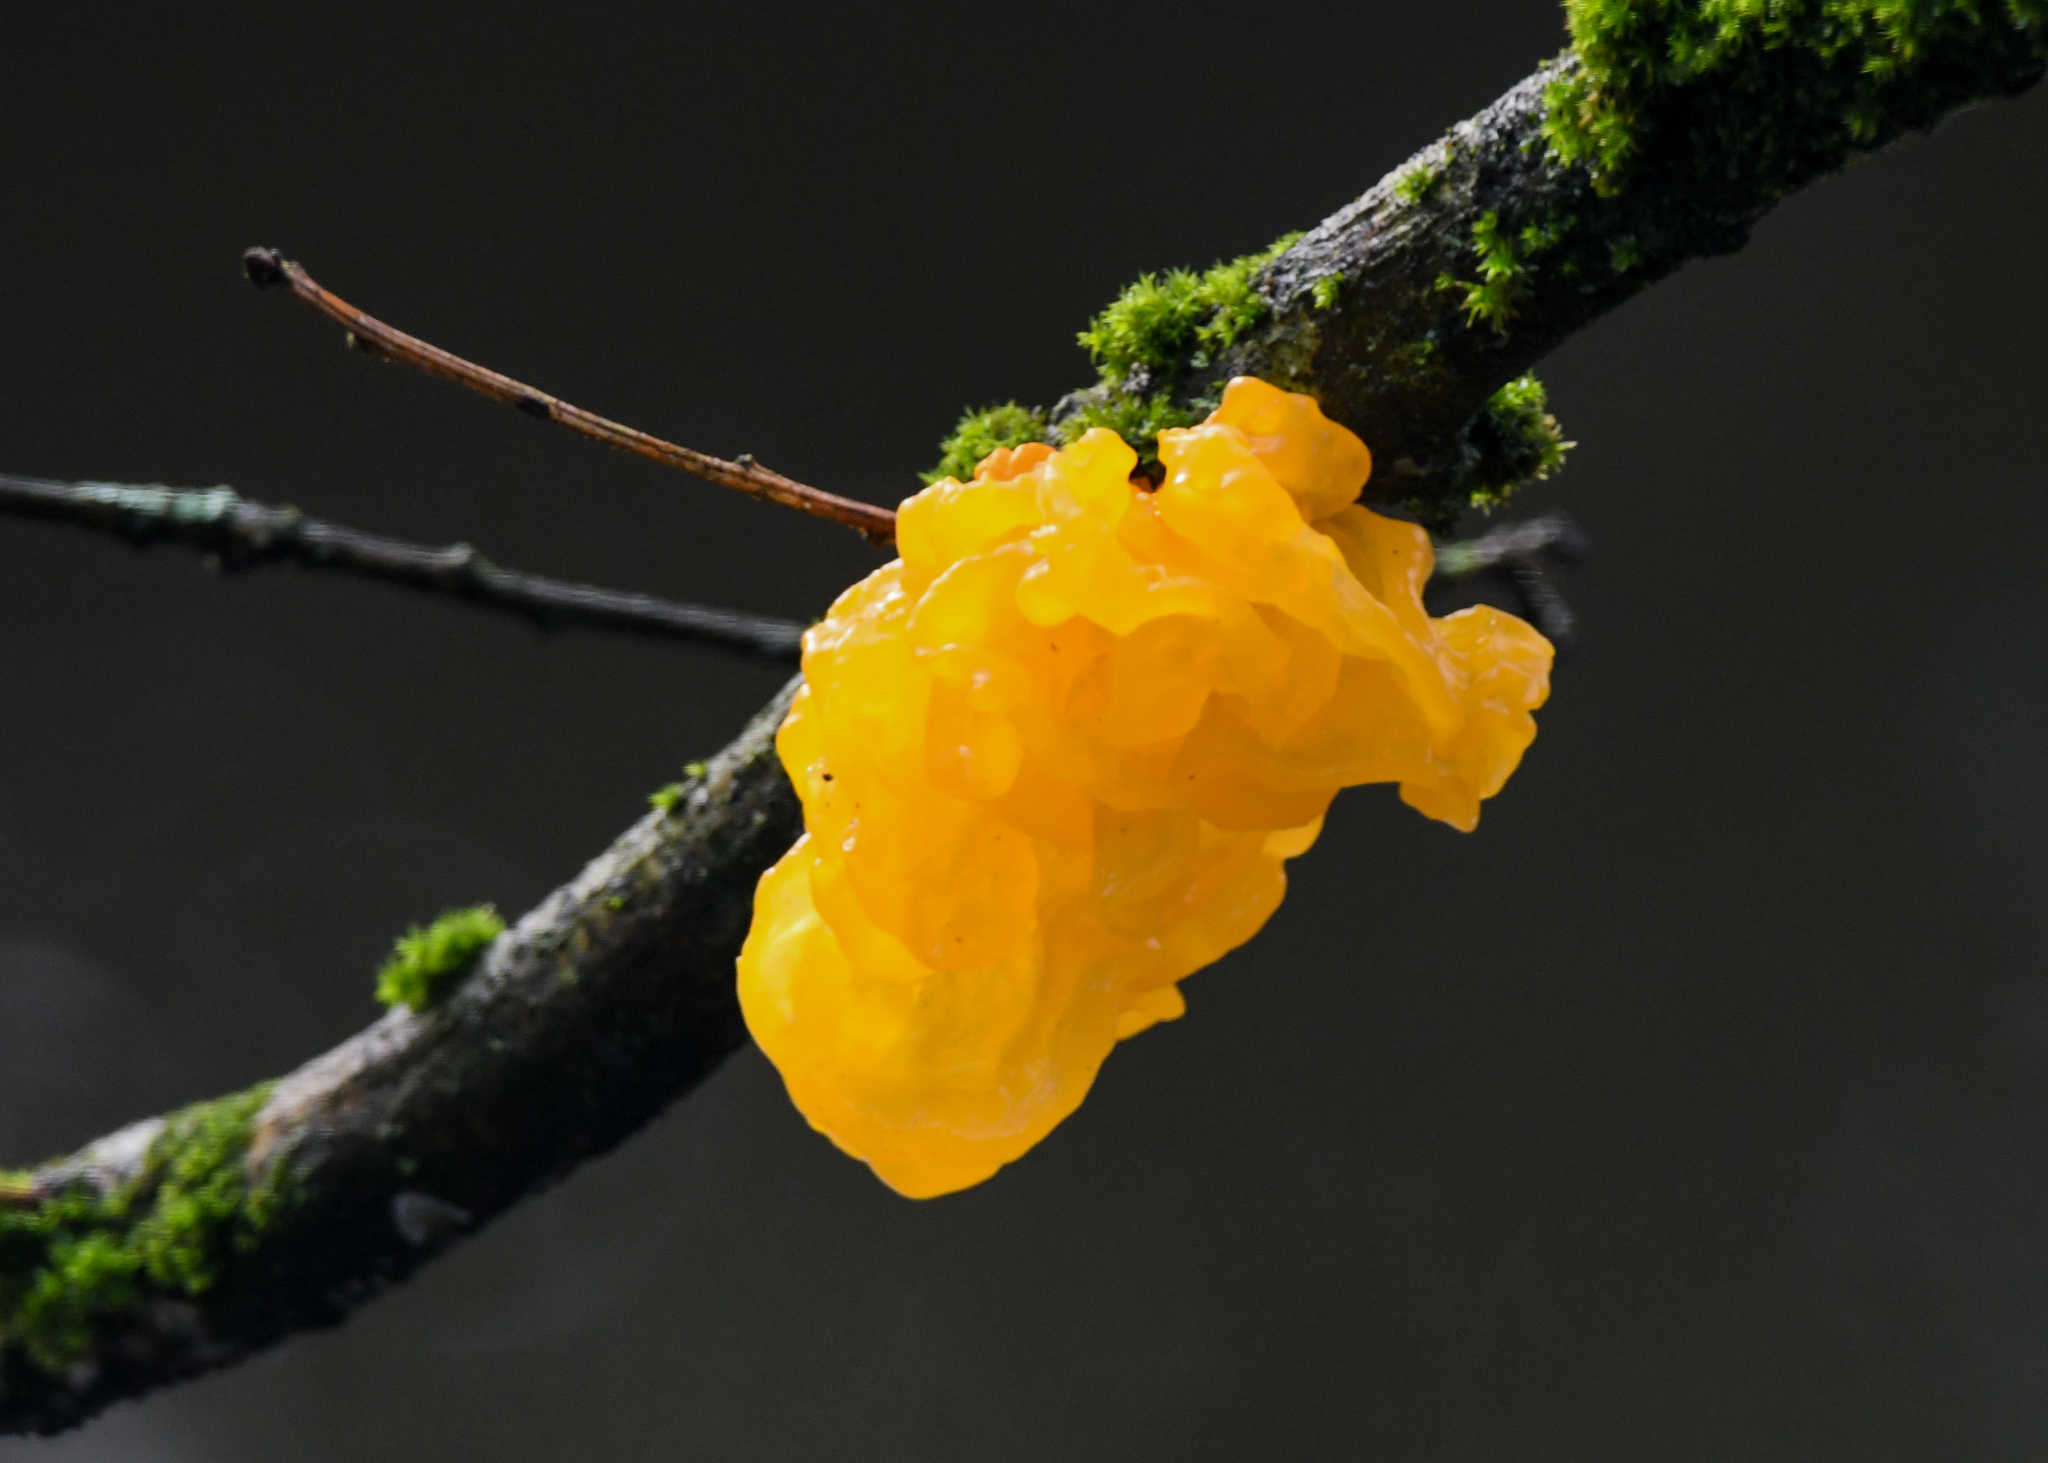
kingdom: Fungi
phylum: Basidiomycota
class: Tremellomycetes
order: Tremellales
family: Tremellaceae
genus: Tremella
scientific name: Tremella mesenterica
